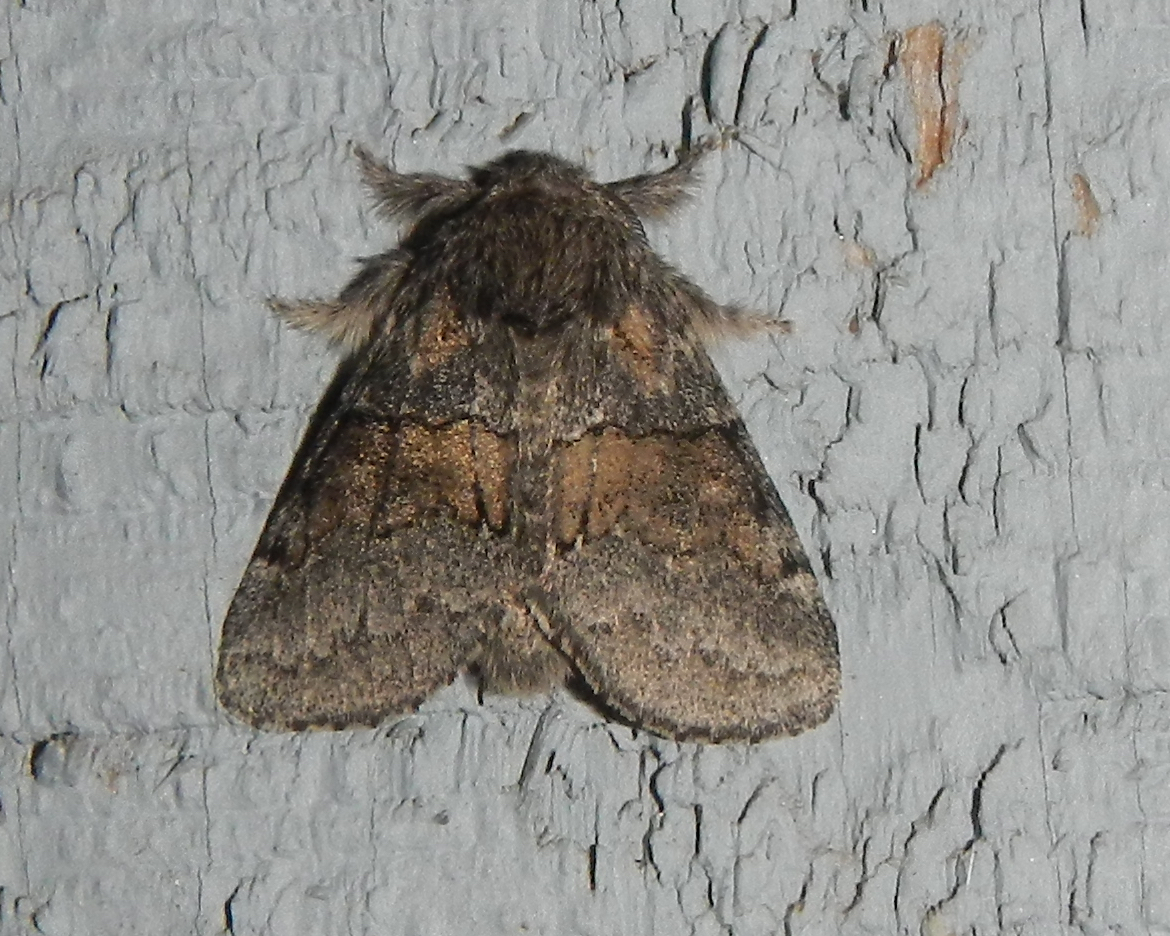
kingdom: Animalia
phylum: Arthropoda
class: Insecta
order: Lepidoptera
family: Notodontidae
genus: Gluphisia
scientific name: Gluphisia septentrionis
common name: Common gluphisia
